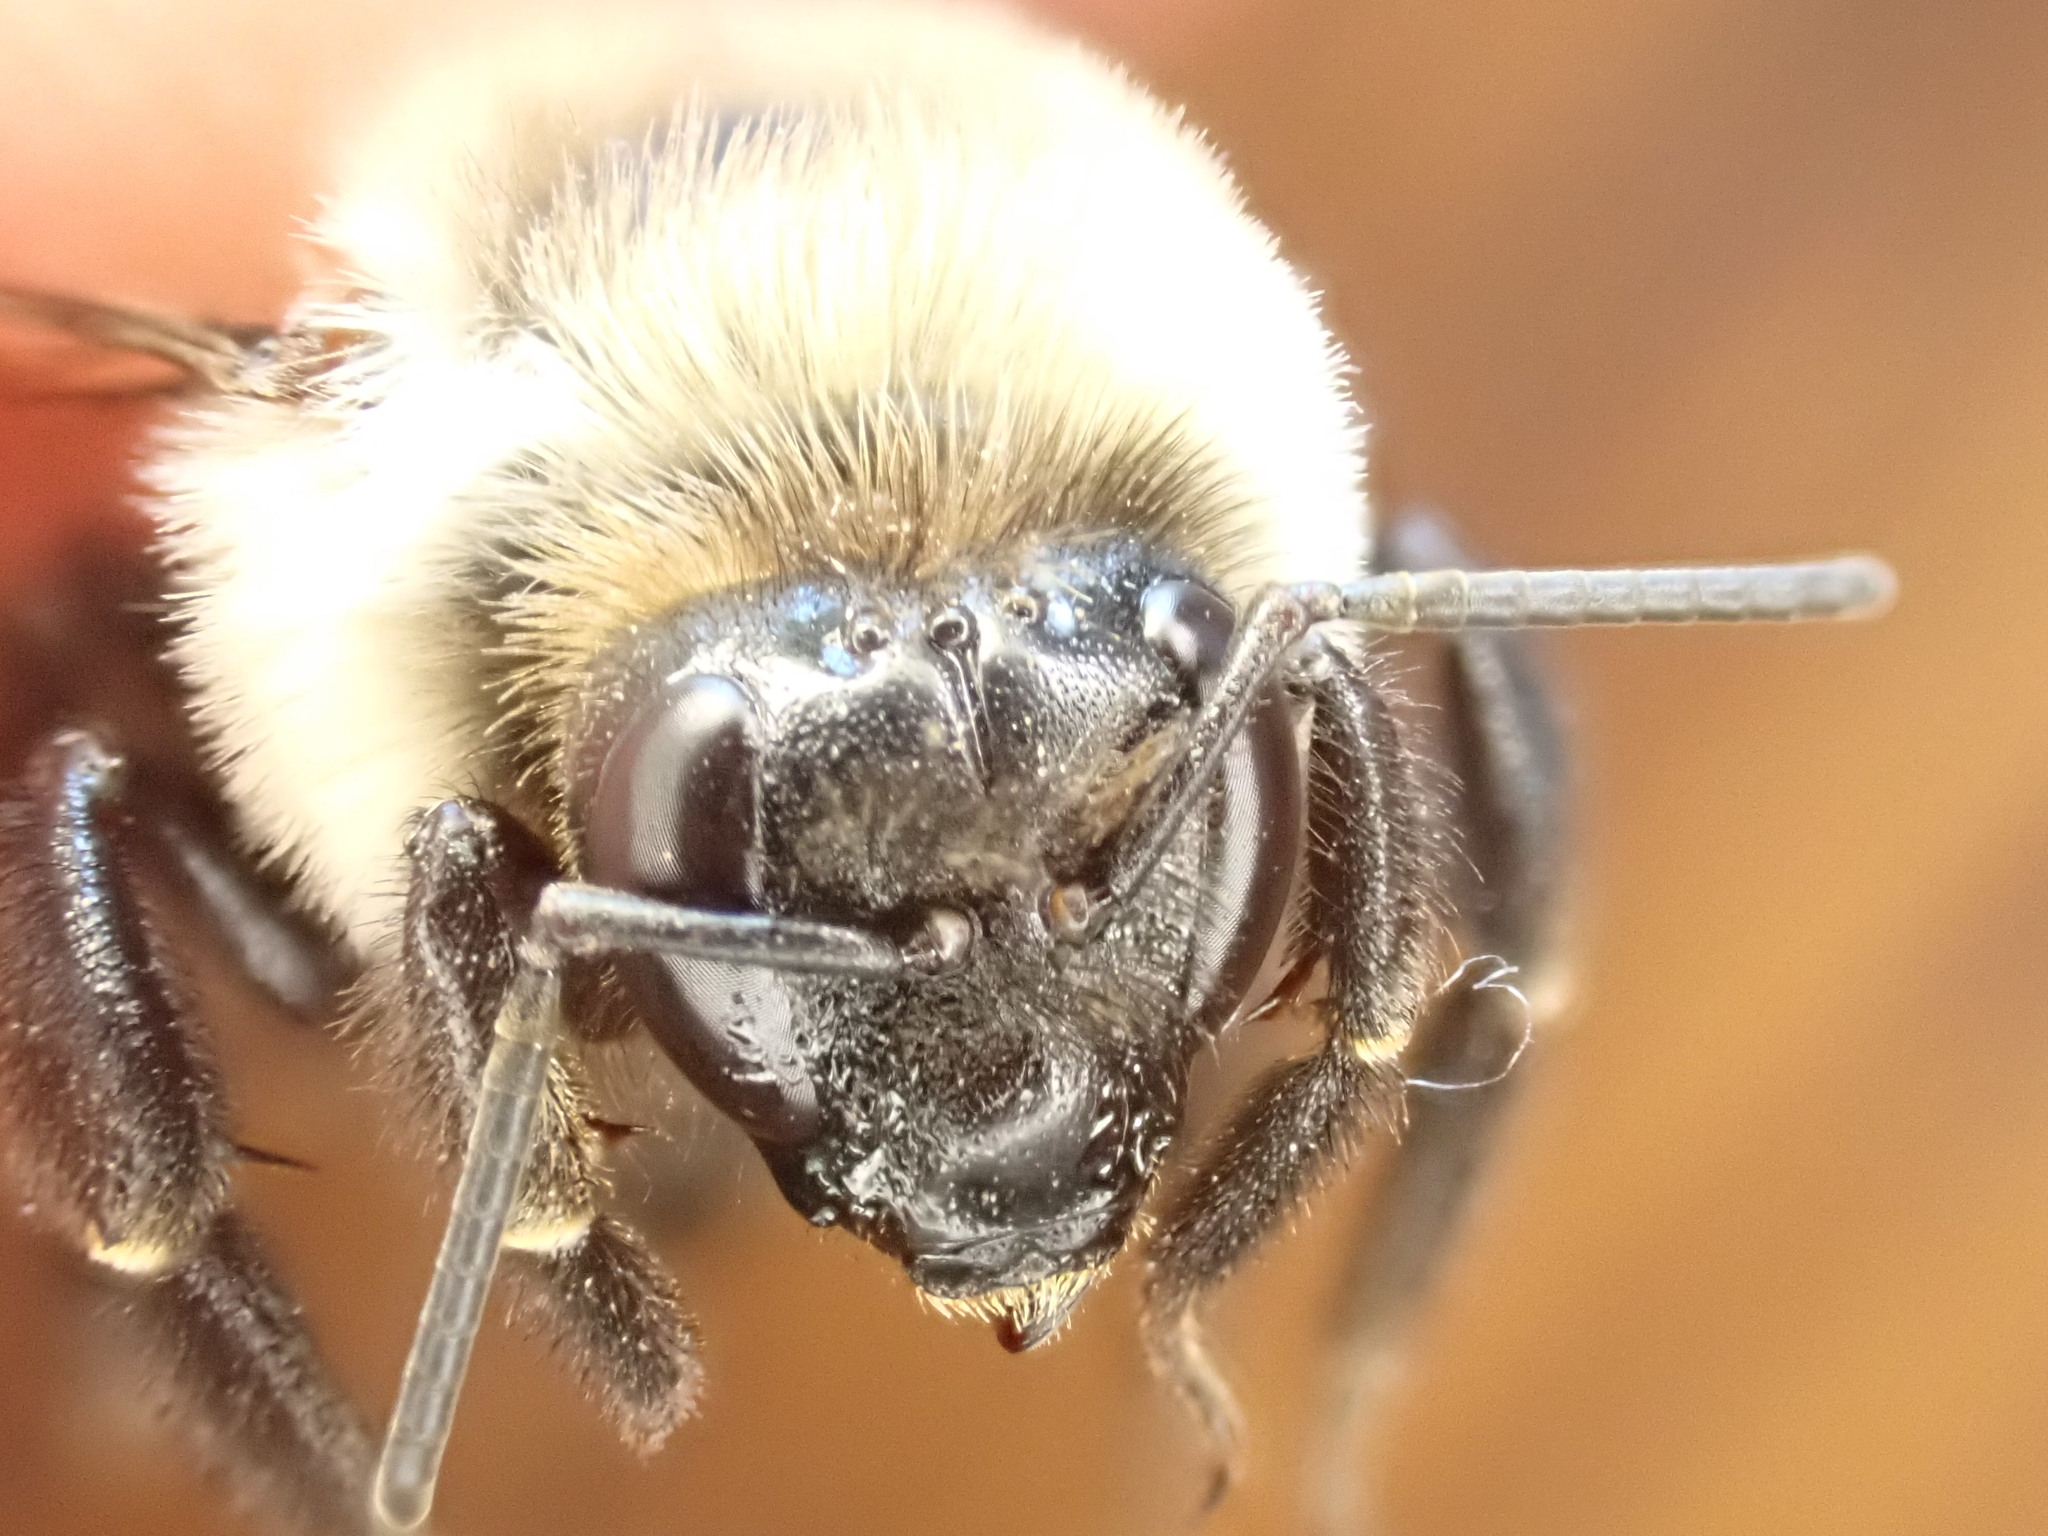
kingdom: Animalia
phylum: Arthropoda
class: Insecta
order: Hymenoptera
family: Apidae
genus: Bombus
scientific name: Bombus impatiens
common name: Common eastern bumble bee
